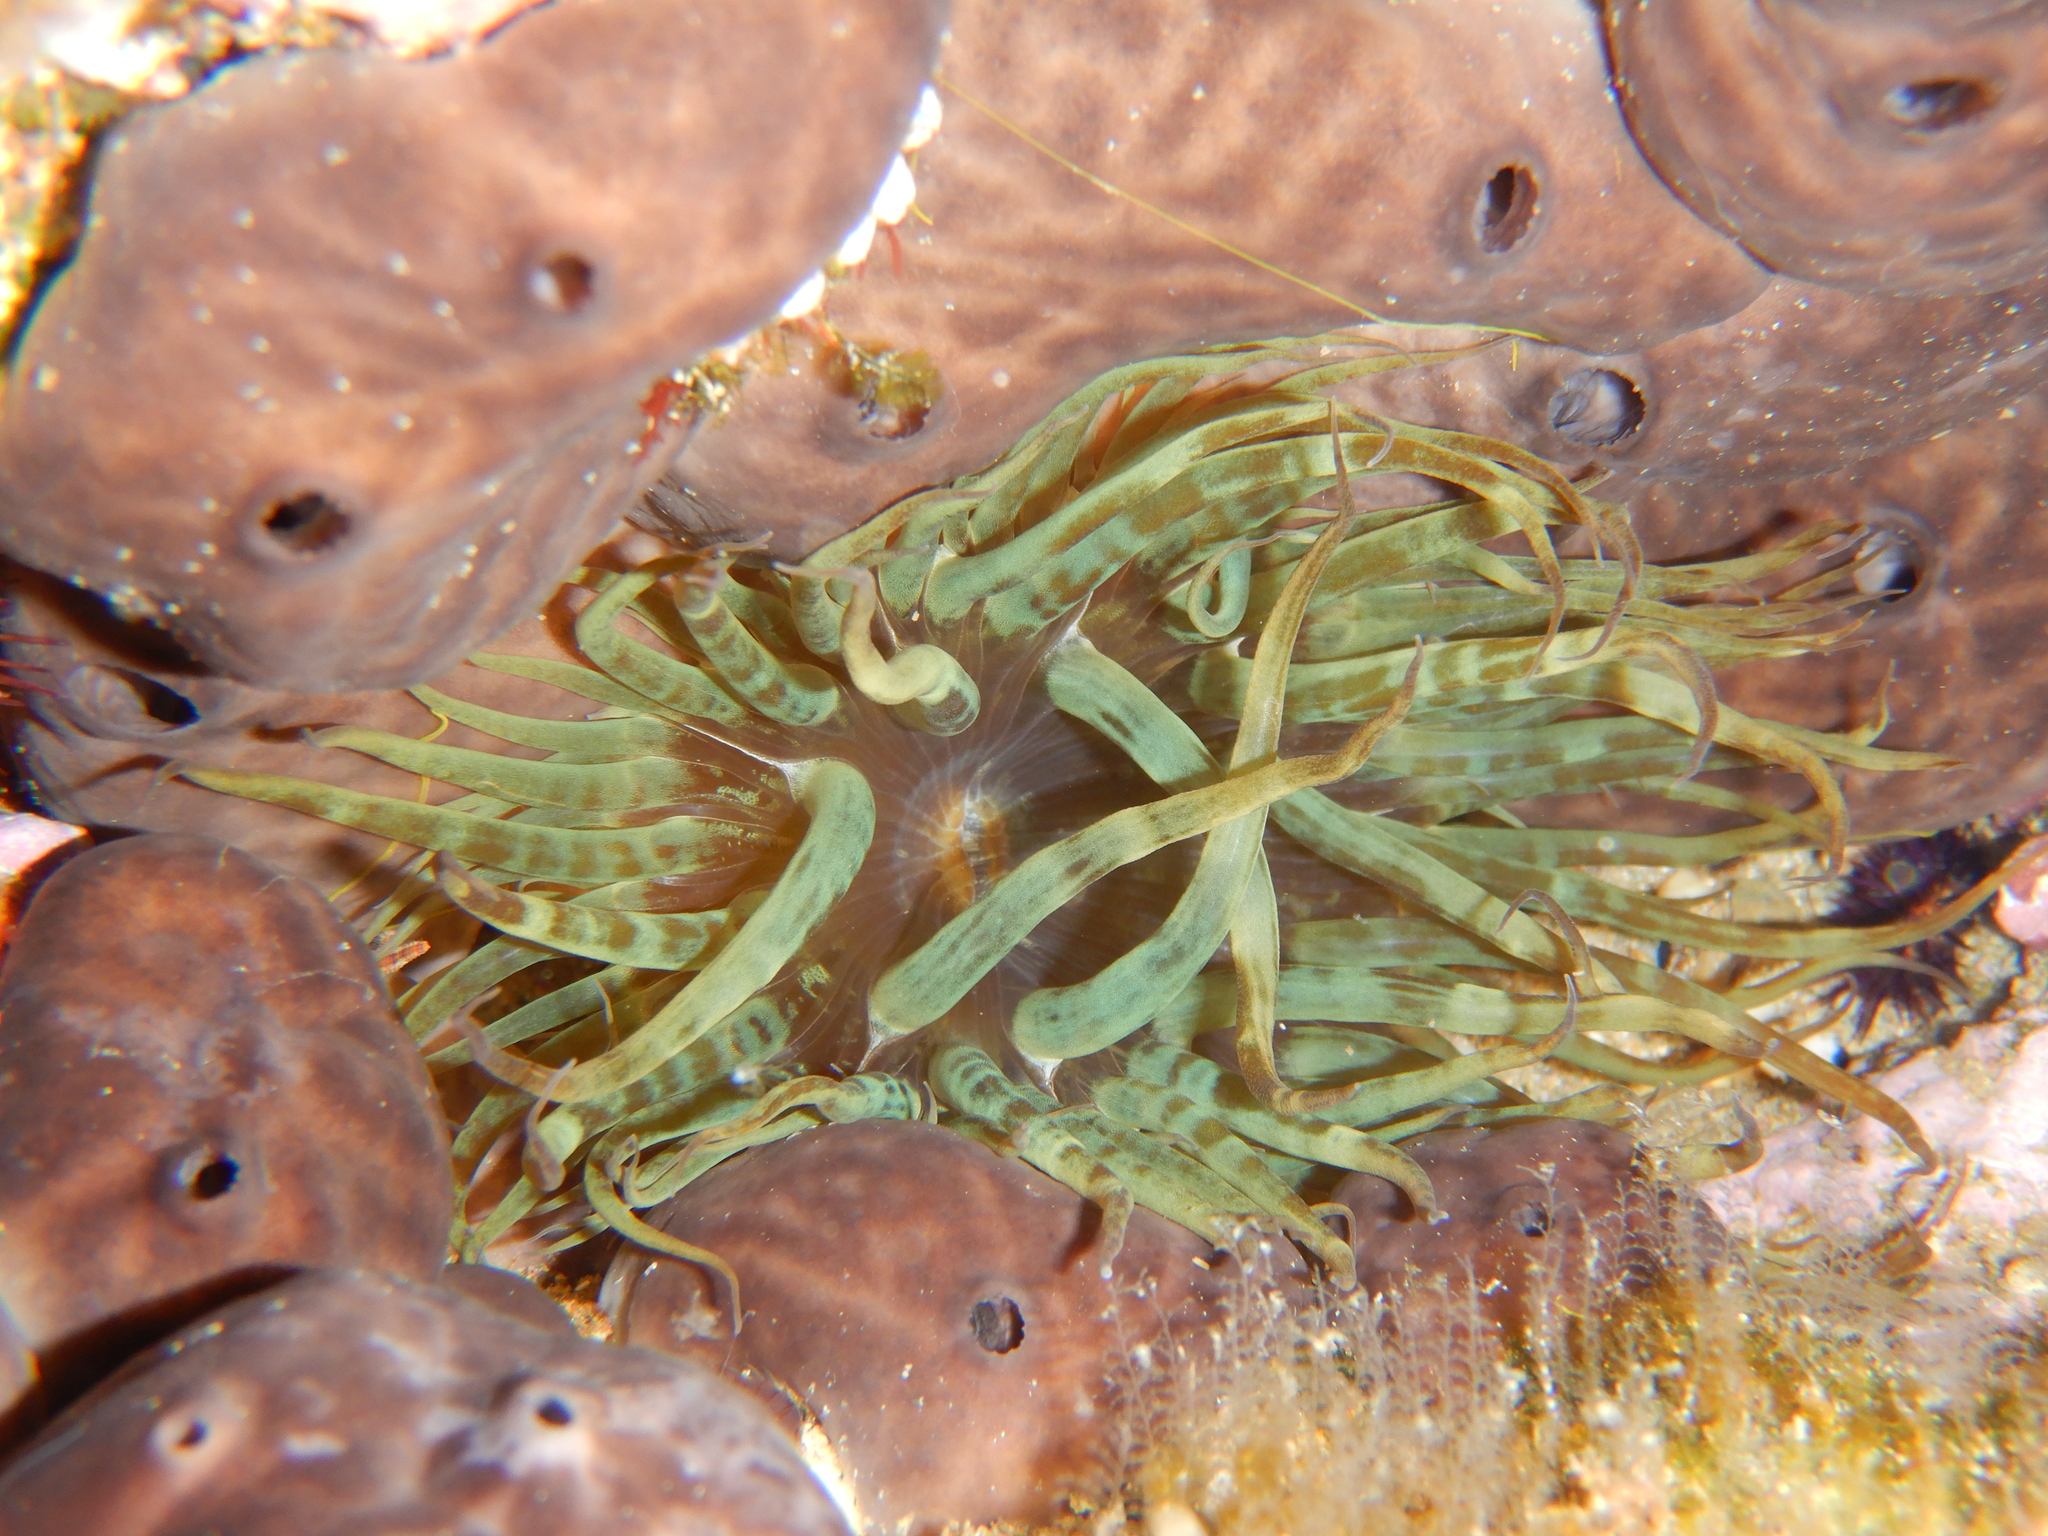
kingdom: Animalia
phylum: Cnidaria
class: Anthozoa
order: Actiniaria
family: Aiptasiidae
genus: Aiptasia
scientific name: Aiptasia mutabilis
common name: Trumpet anemone
